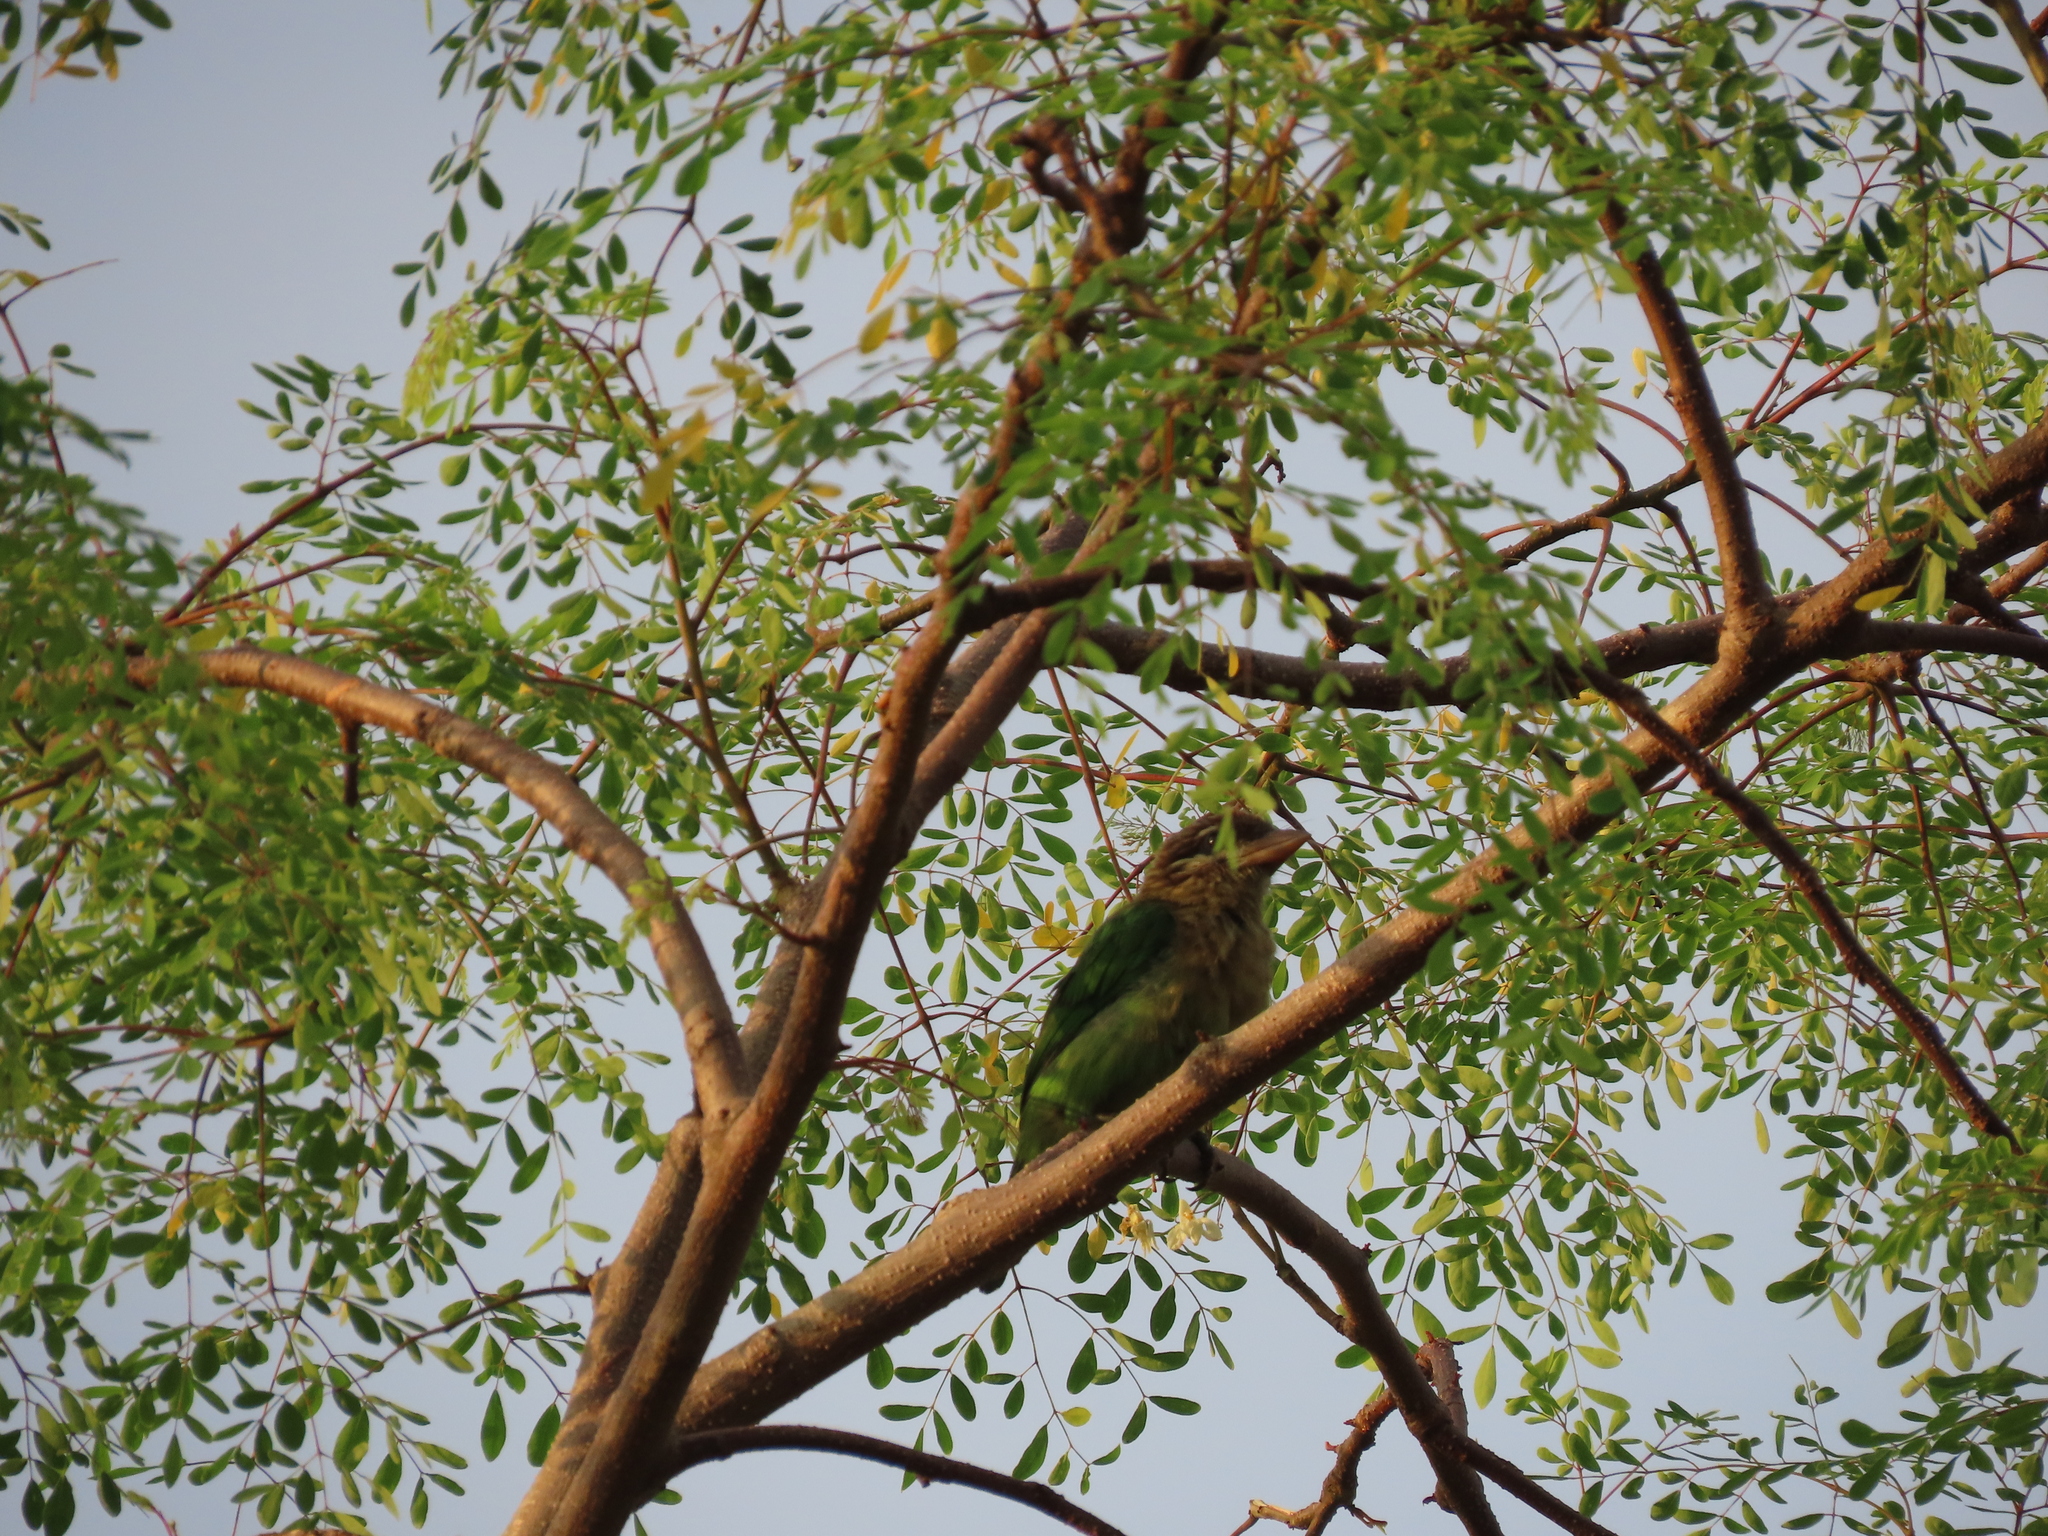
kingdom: Animalia
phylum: Chordata
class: Aves
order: Piciformes
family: Megalaimidae
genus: Psilopogon
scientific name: Psilopogon viridis
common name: White-cheeked barbet
